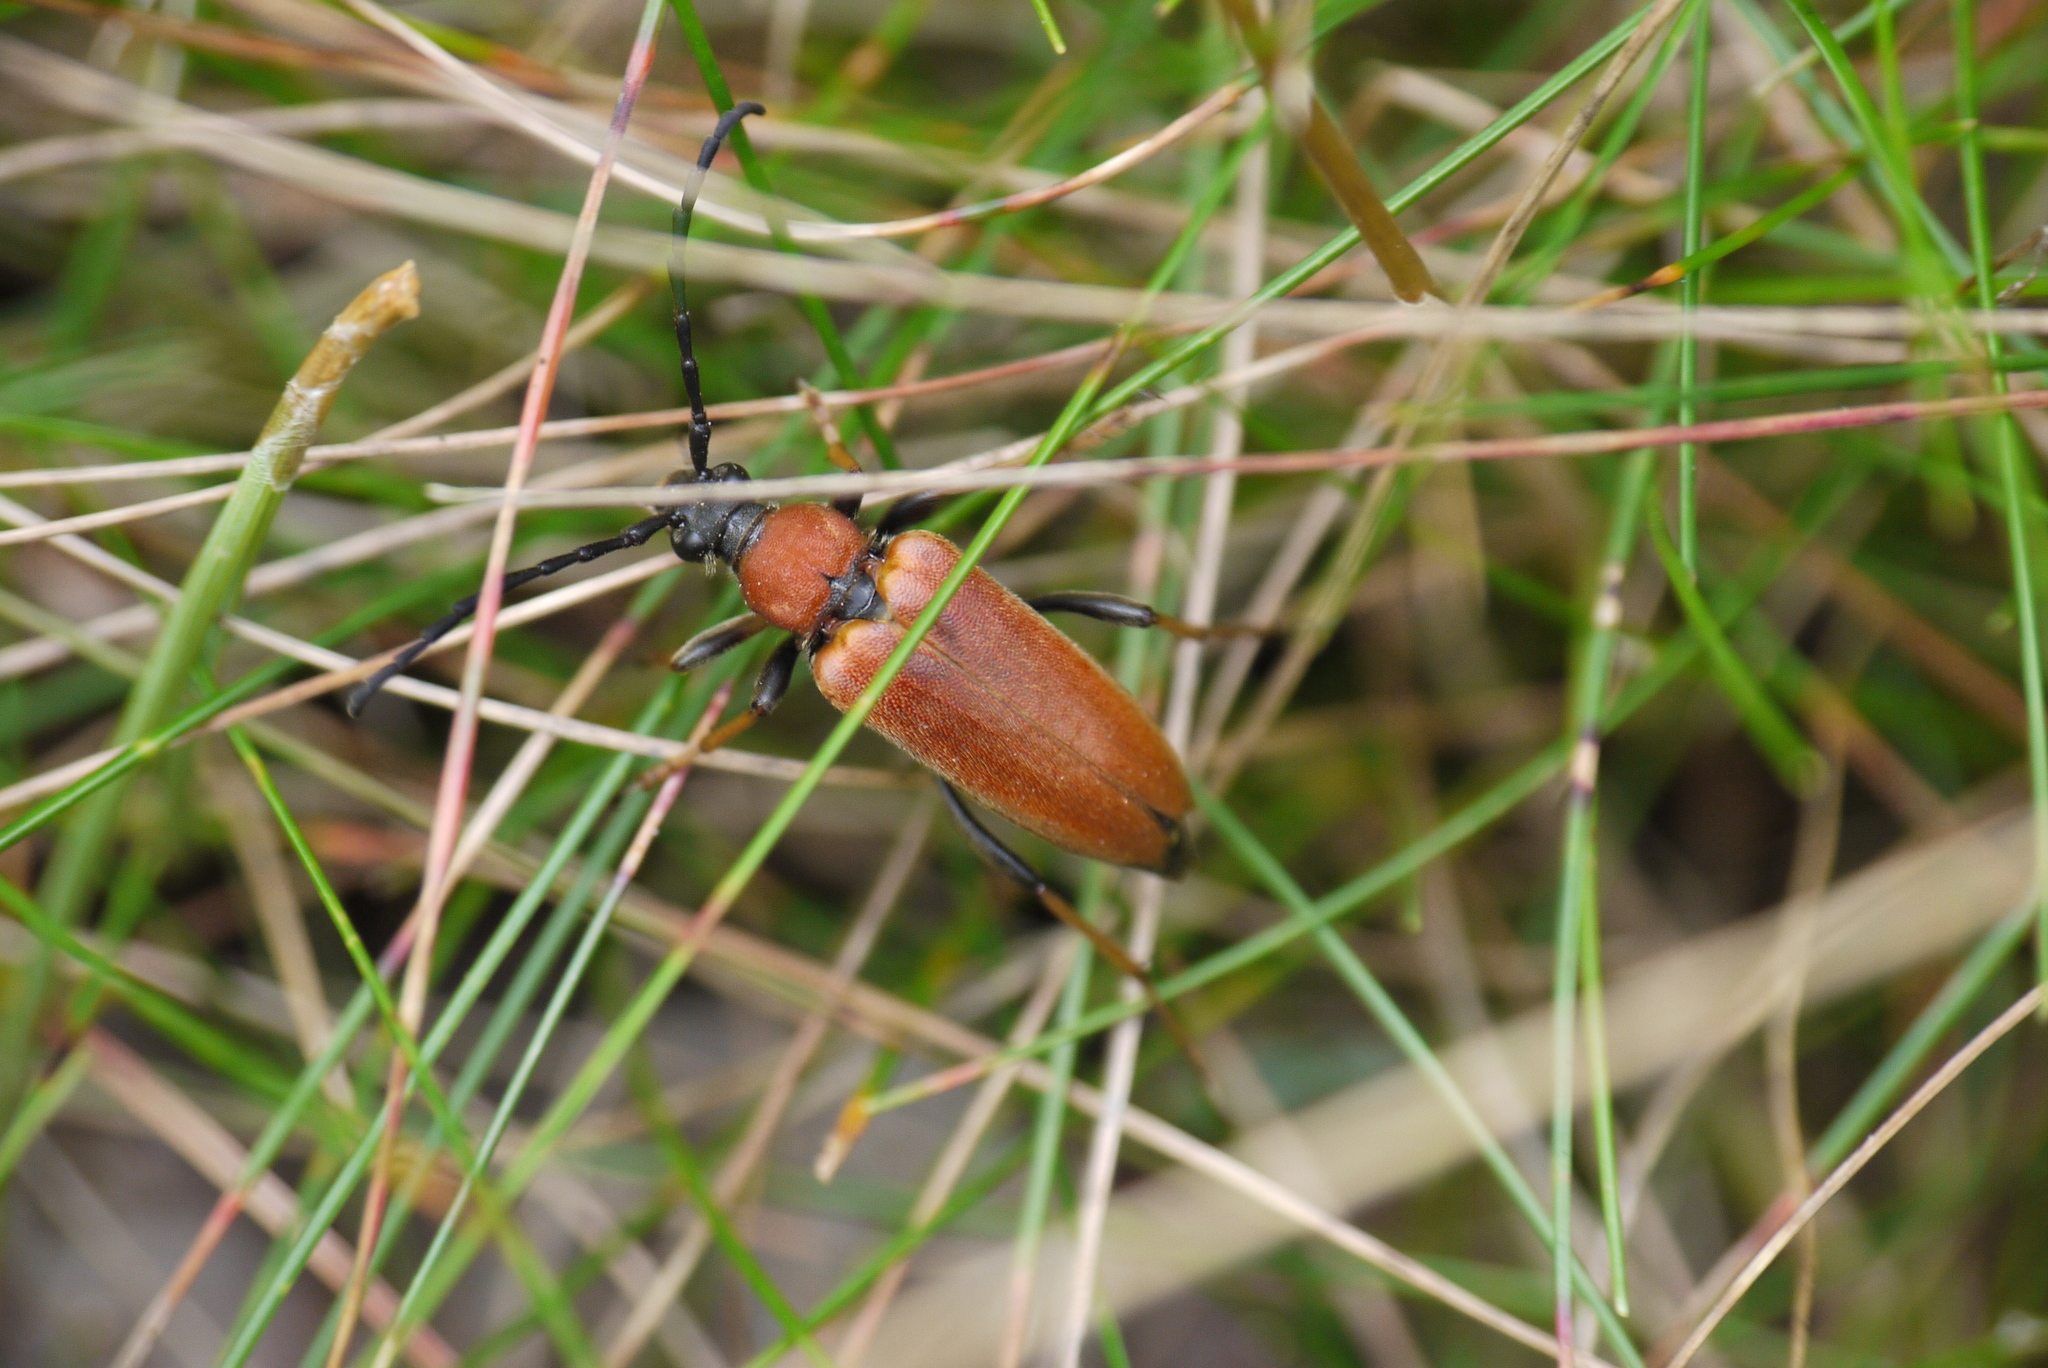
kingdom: Animalia
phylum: Arthropoda
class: Insecta
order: Coleoptera
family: Cerambycidae
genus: Stictoleptura
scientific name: Stictoleptura rubra
